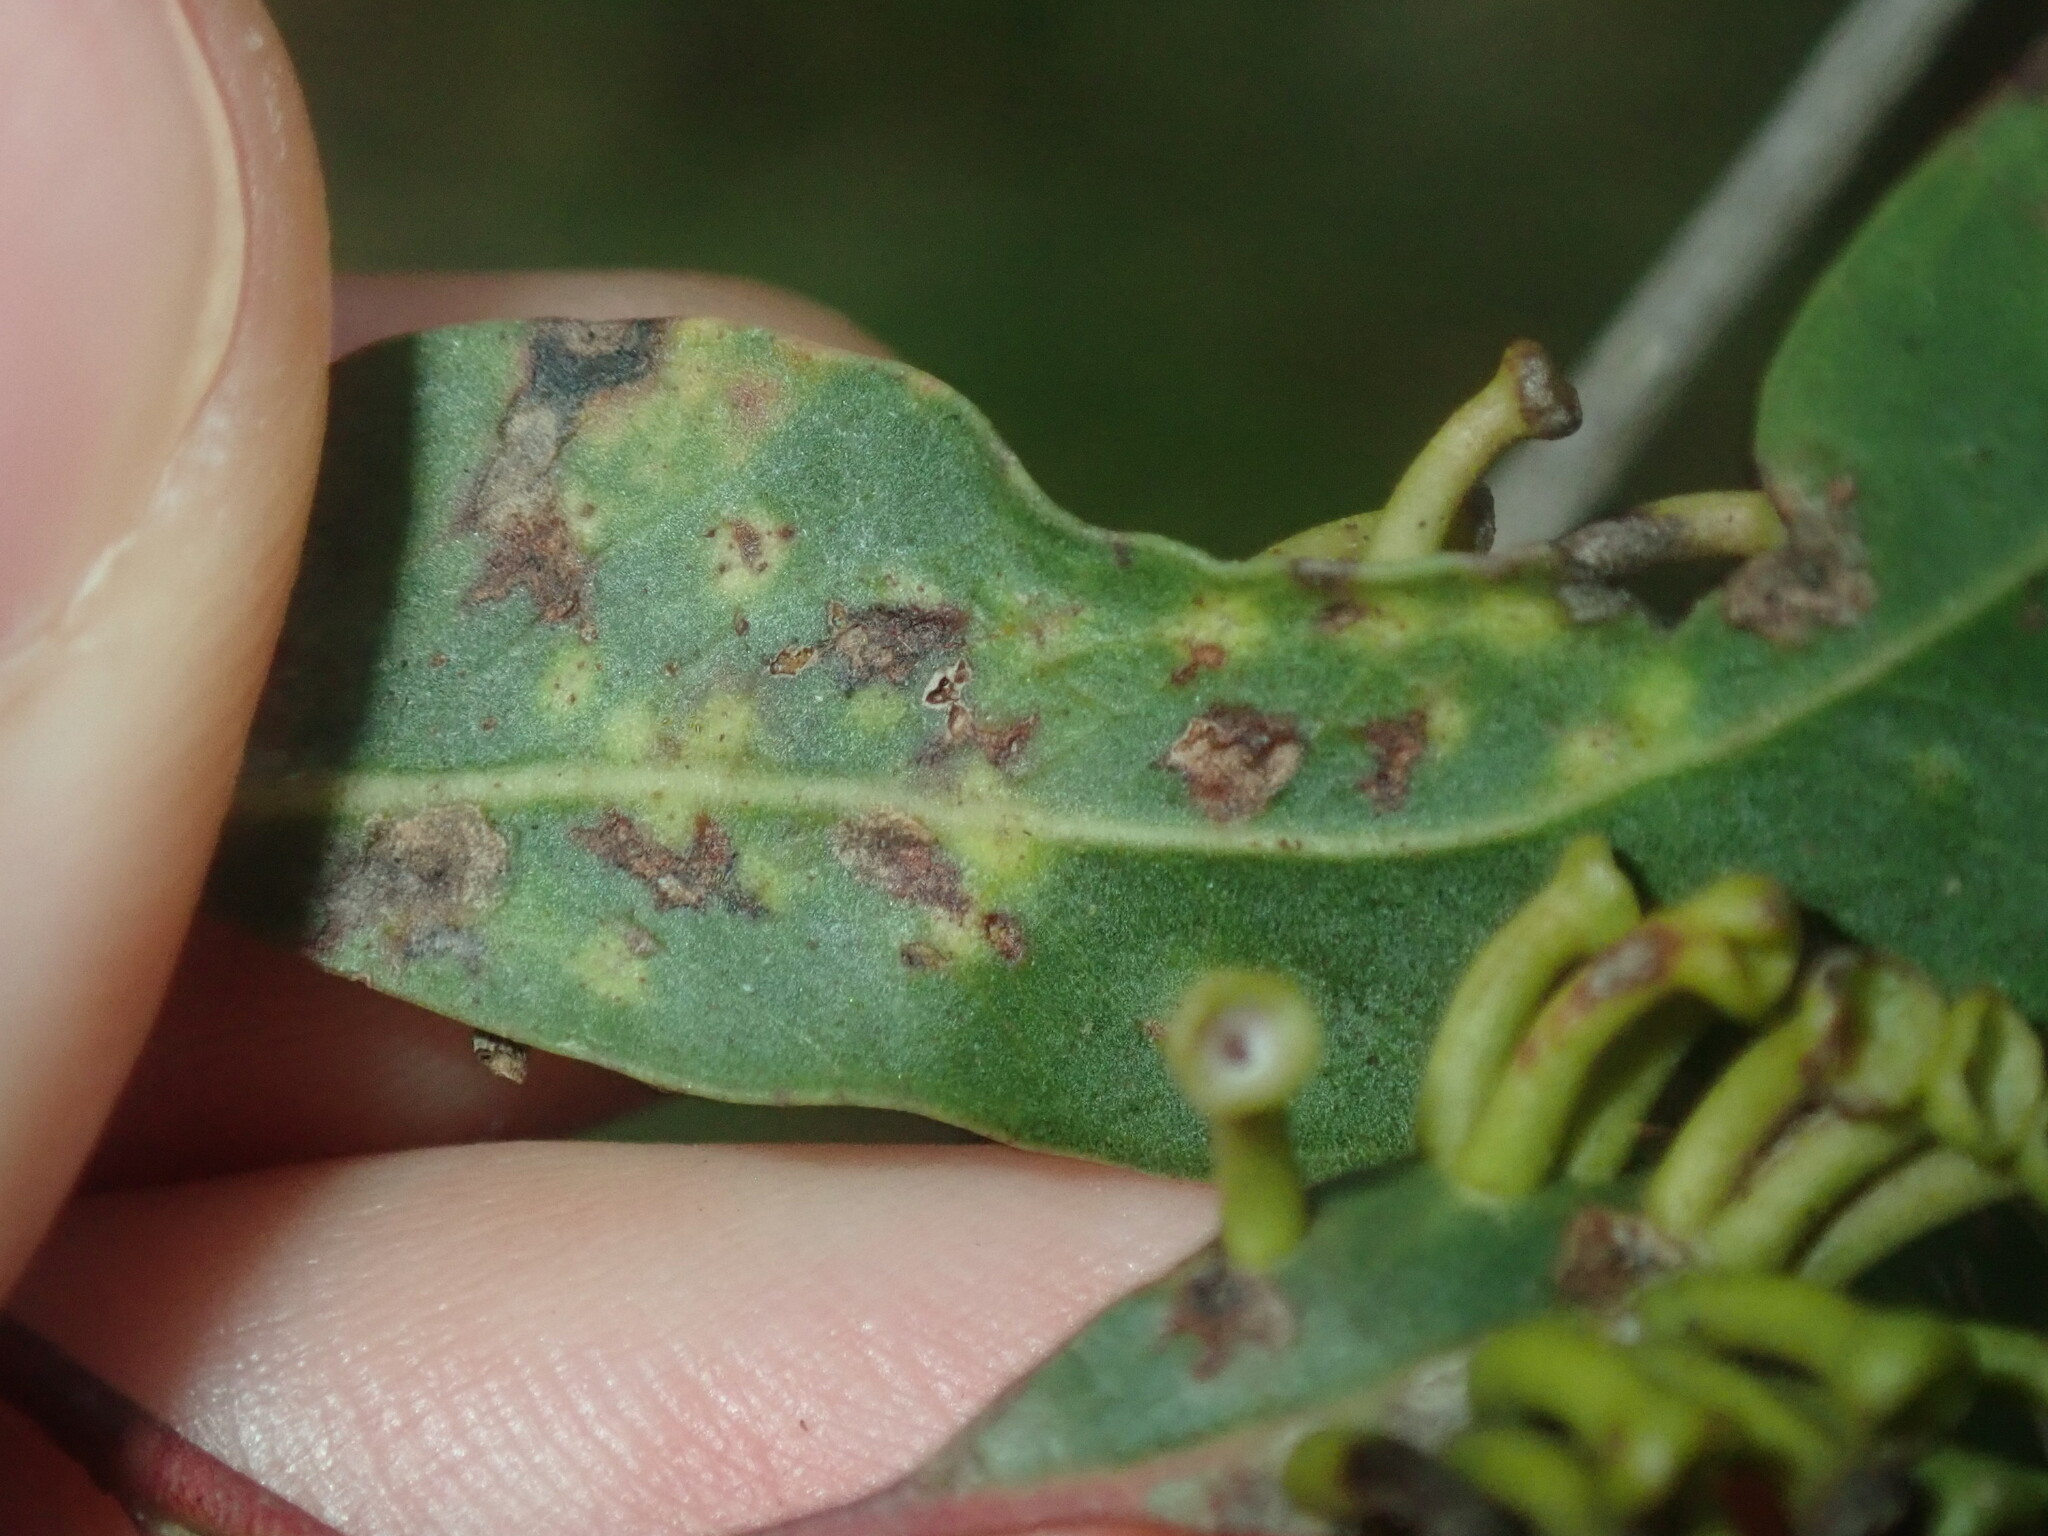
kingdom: Animalia
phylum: Arthropoda
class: Insecta
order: Hemiptera
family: Eriococcidae
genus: Apiomorpha
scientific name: Apiomorpha ovicola
